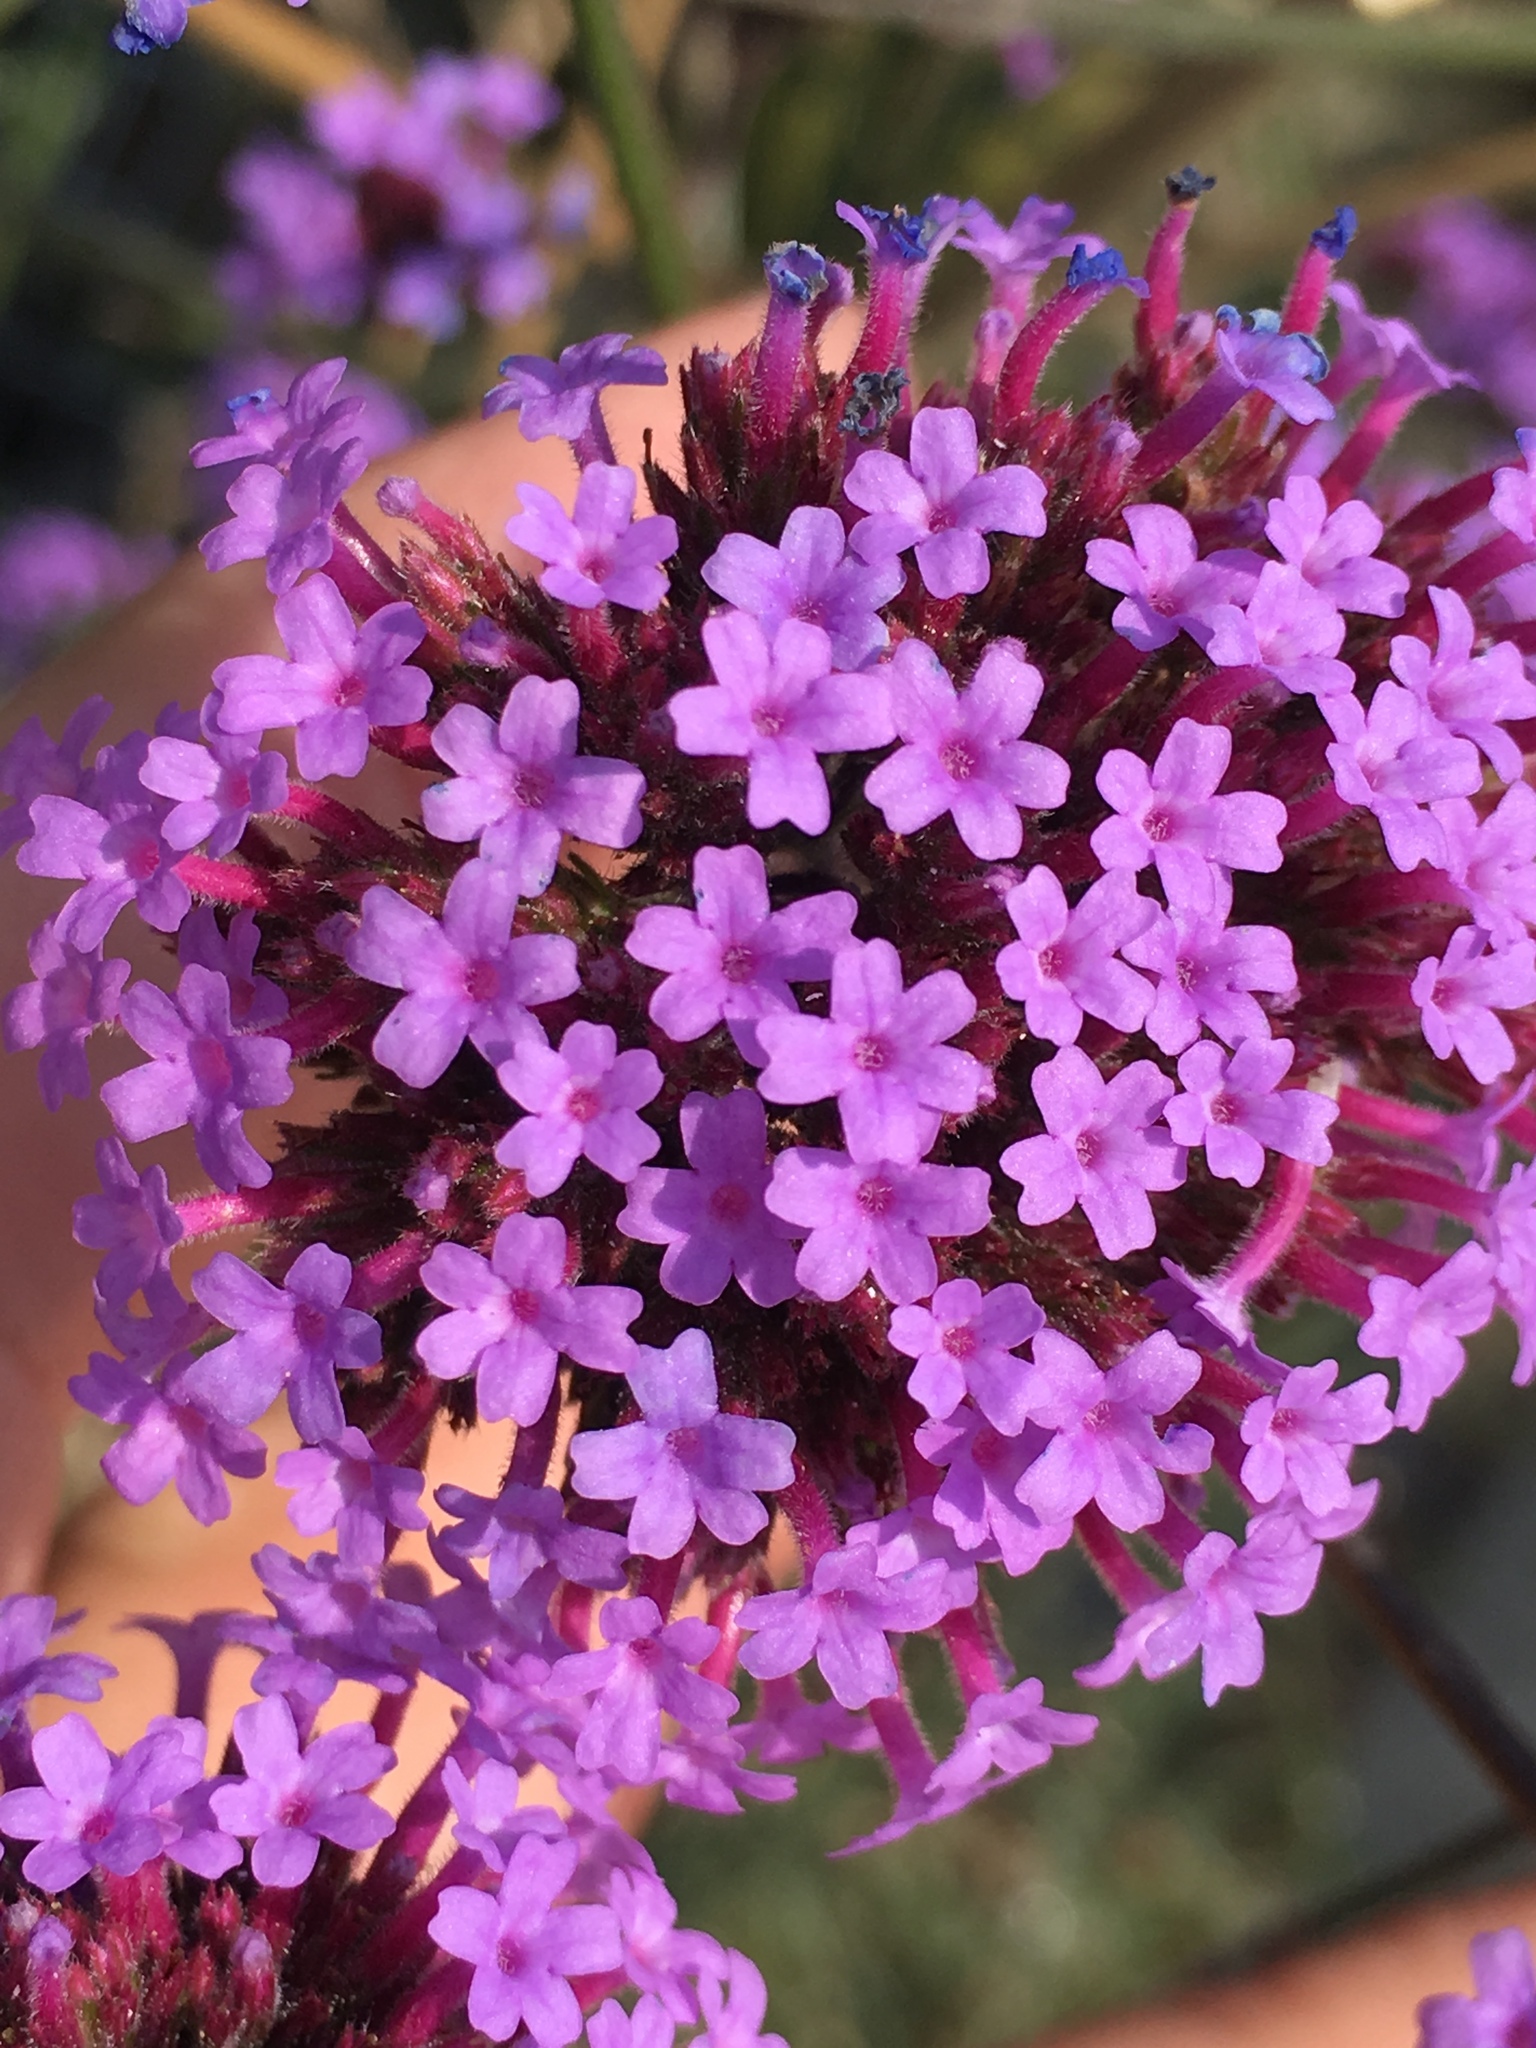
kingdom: Plantae
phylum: Tracheophyta
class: Magnoliopsida
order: Lamiales
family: Verbenaceae
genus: Verbena
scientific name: Verbena bonariensis
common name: Purpletop vervain
